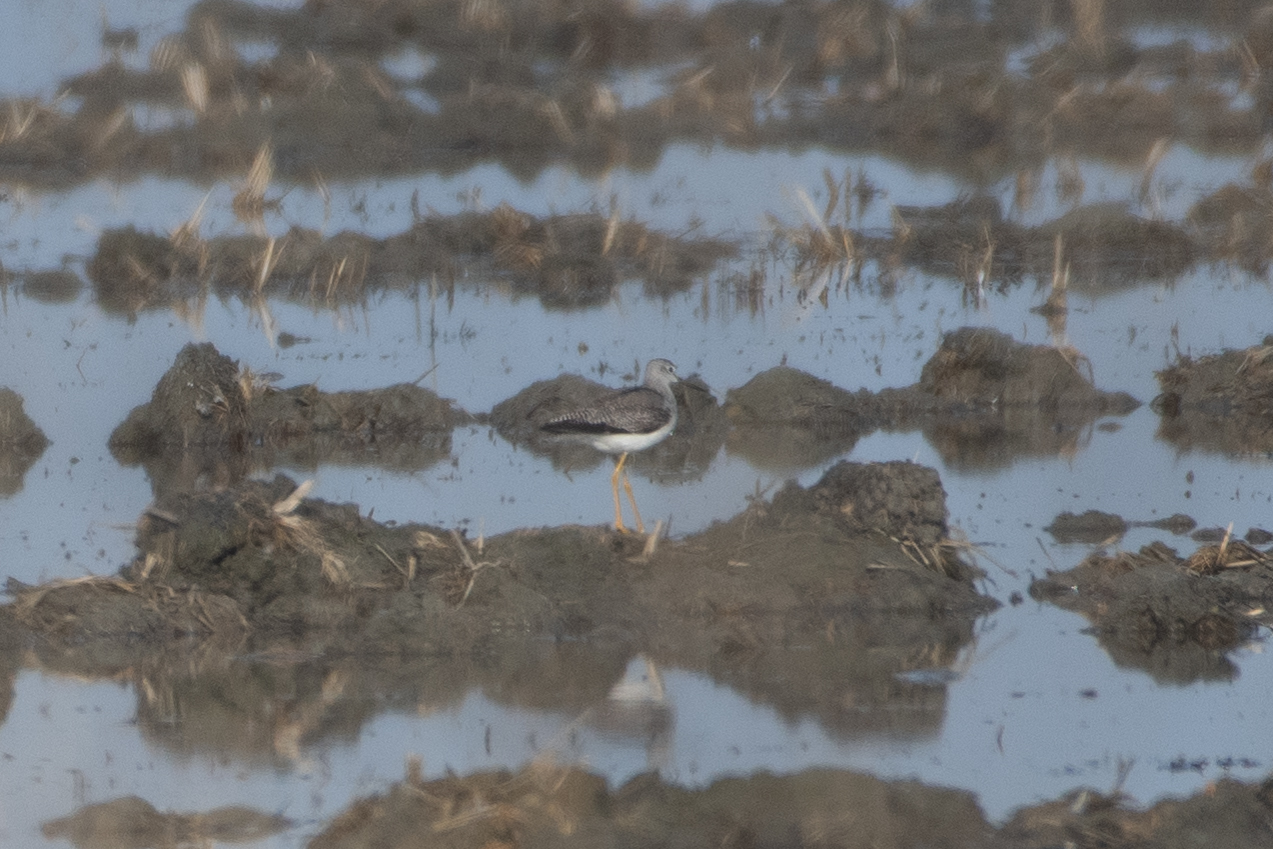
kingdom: Animalia
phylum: Chordata
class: Aves
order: Charadriiformes
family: Scolopacidae
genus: Tringa
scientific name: Tringa melanoleuca
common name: Greater yellowlegs
